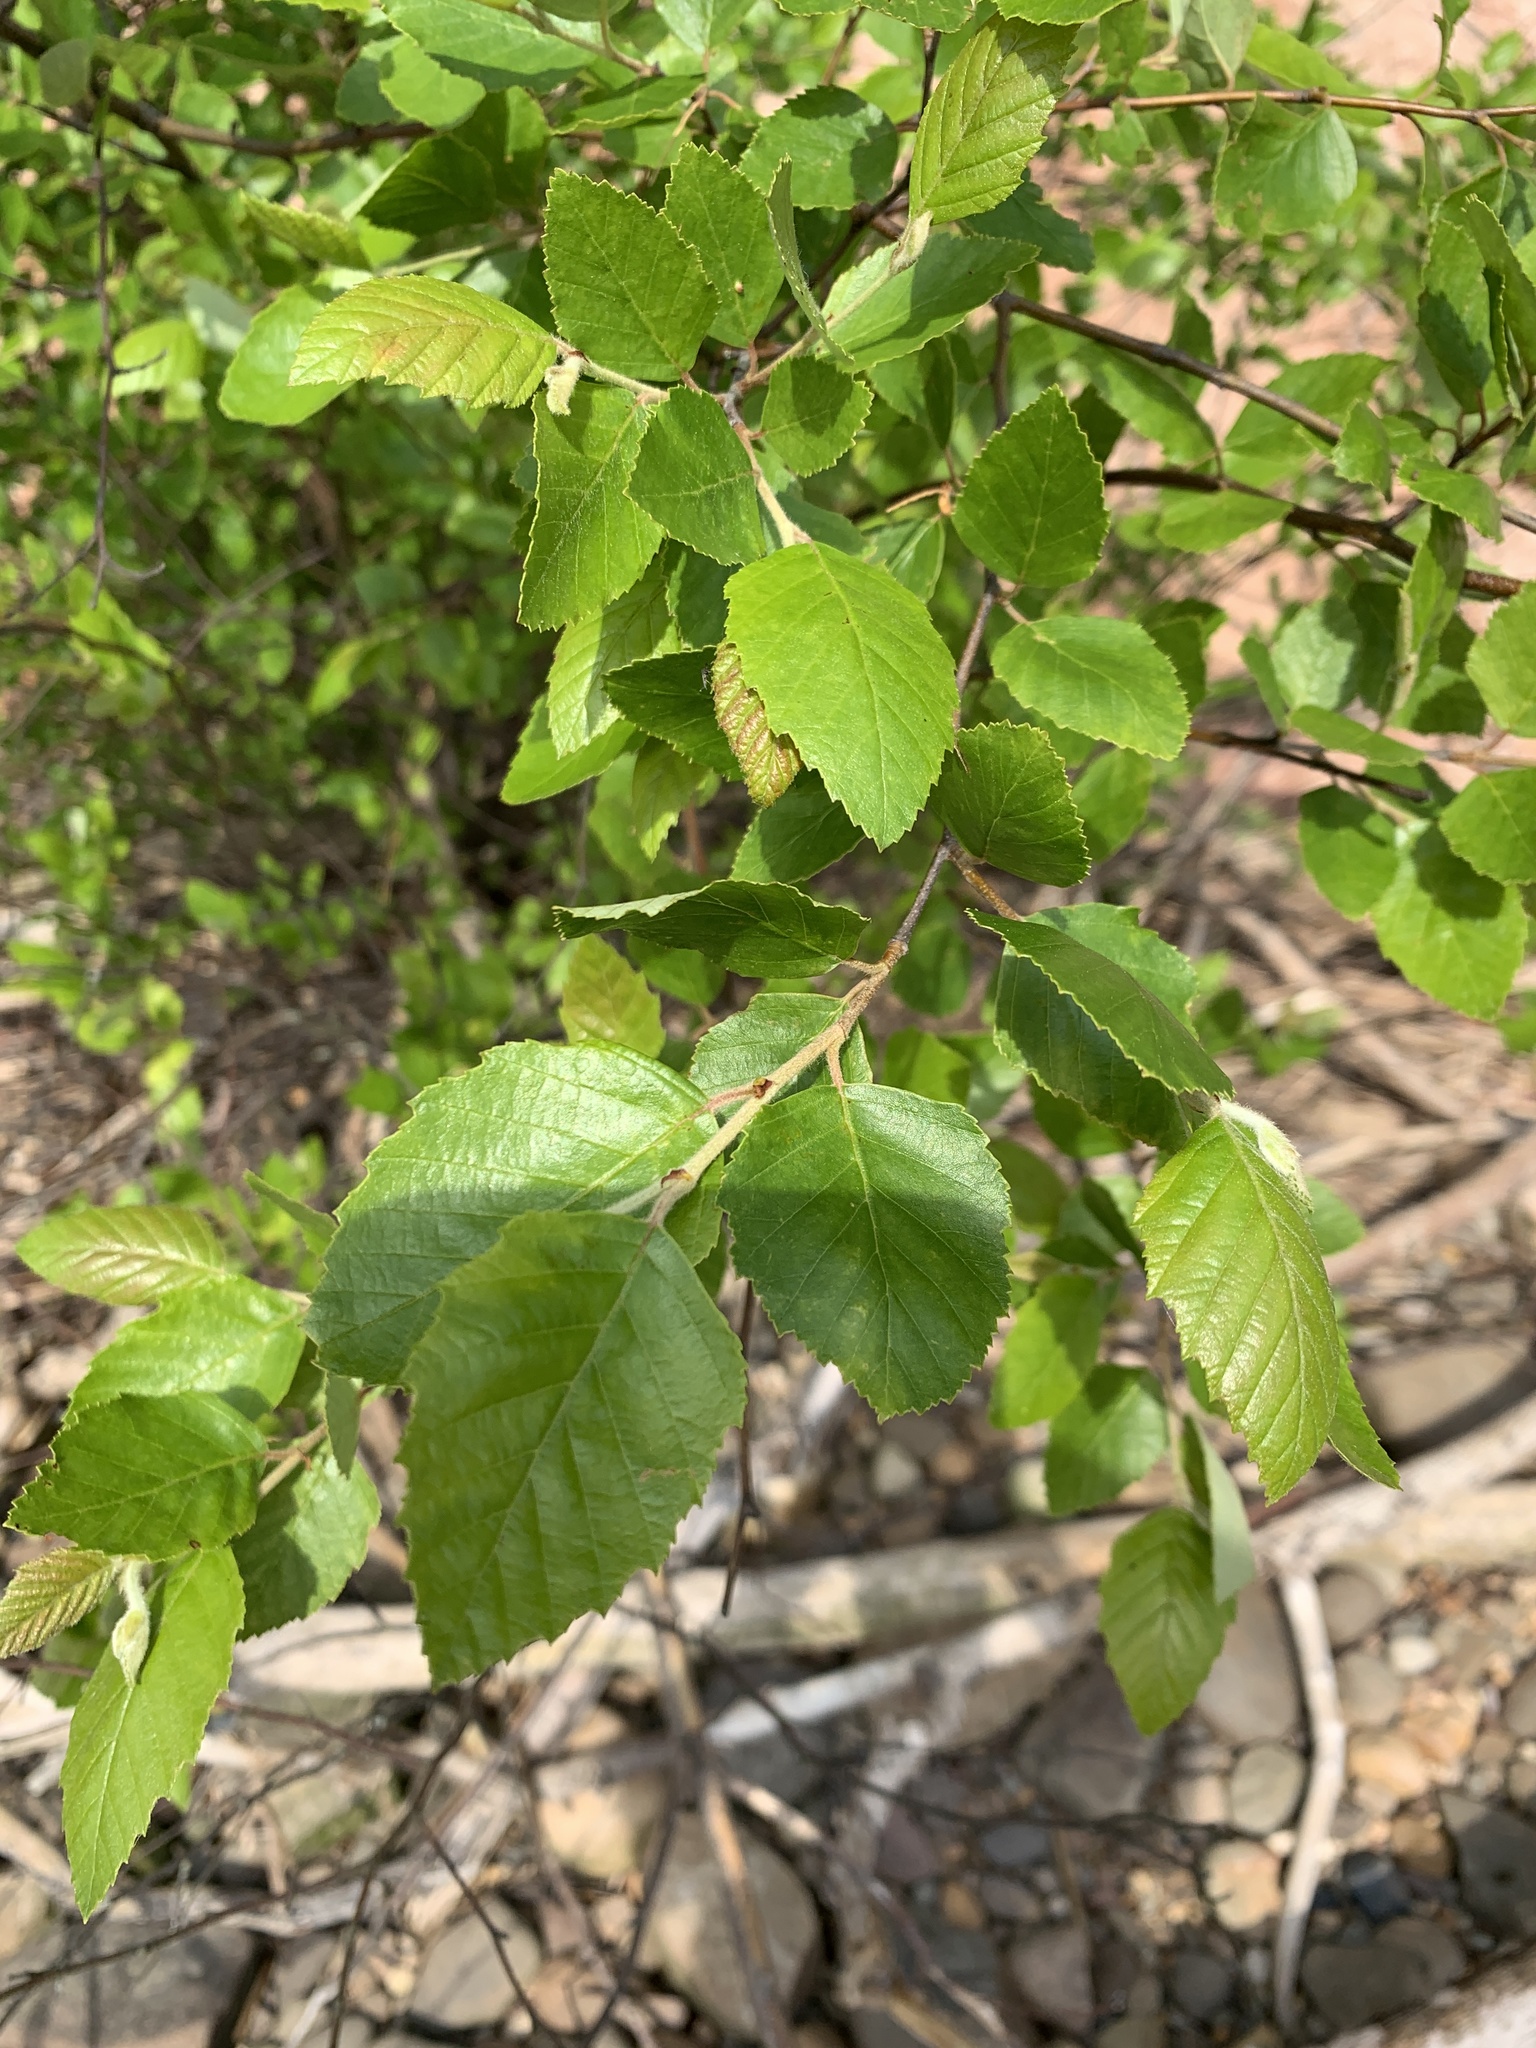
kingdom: Plantae
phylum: Tracheophyta
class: Magnoliopsida
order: Fagales
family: Betulaceae
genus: Betula
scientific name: Betula nigra
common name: Black birch
